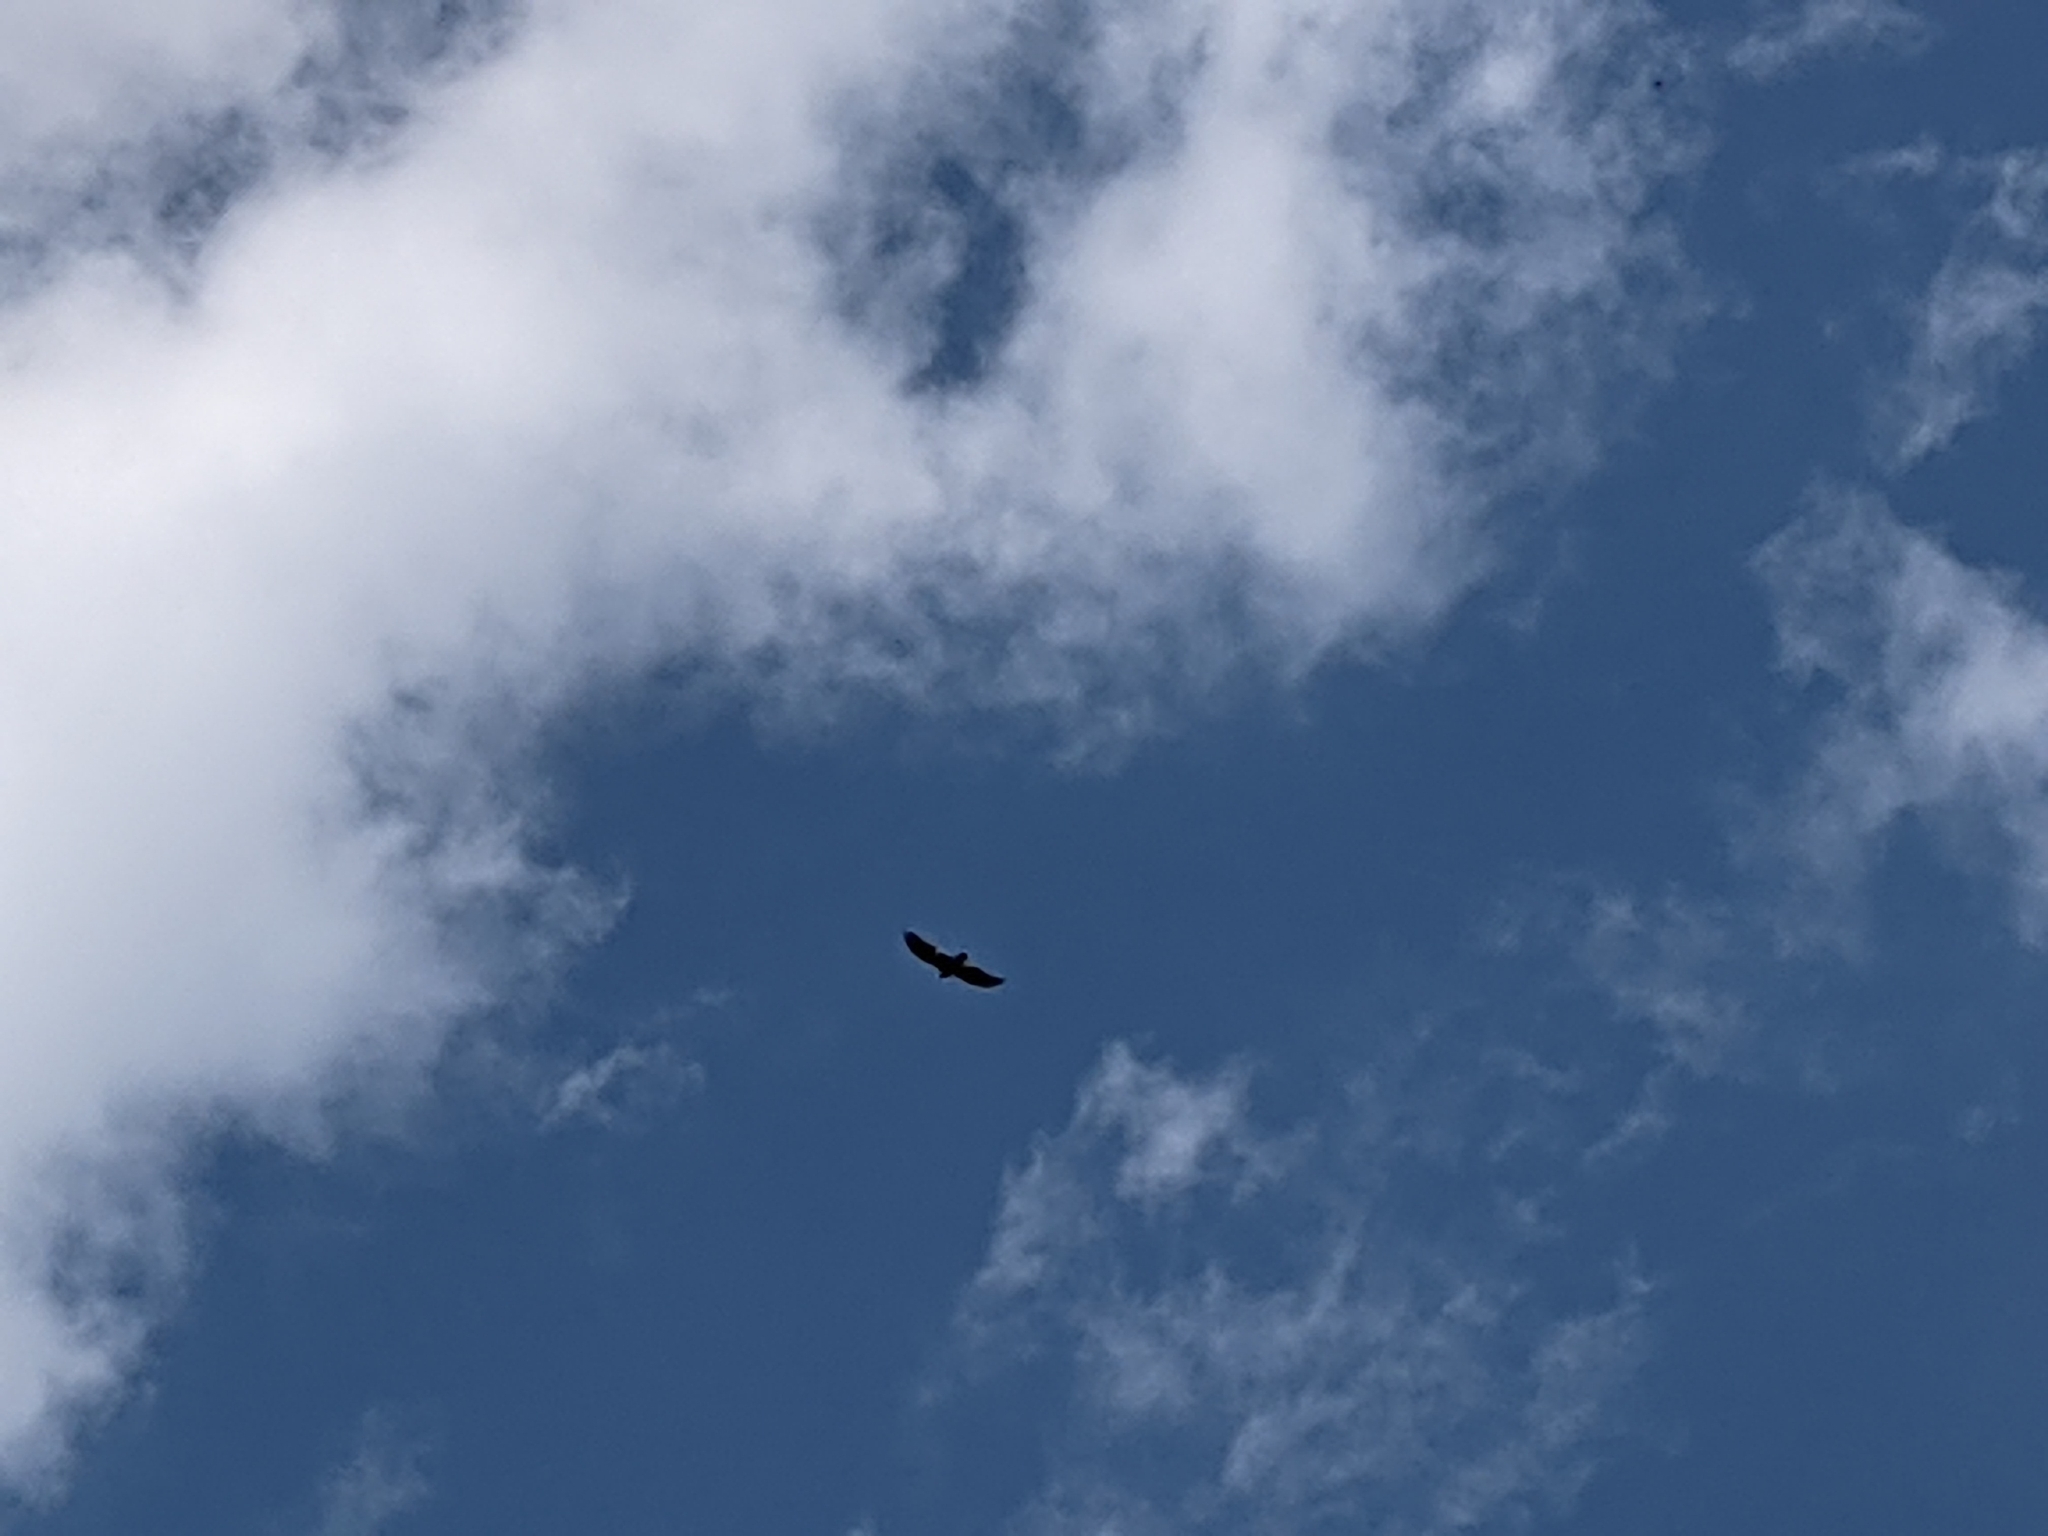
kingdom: Animalia
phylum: Chordata
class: Aves
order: Accipitriformes
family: Cathartidae
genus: Cathartes
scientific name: Cathartes aura
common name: Turkey vulture
